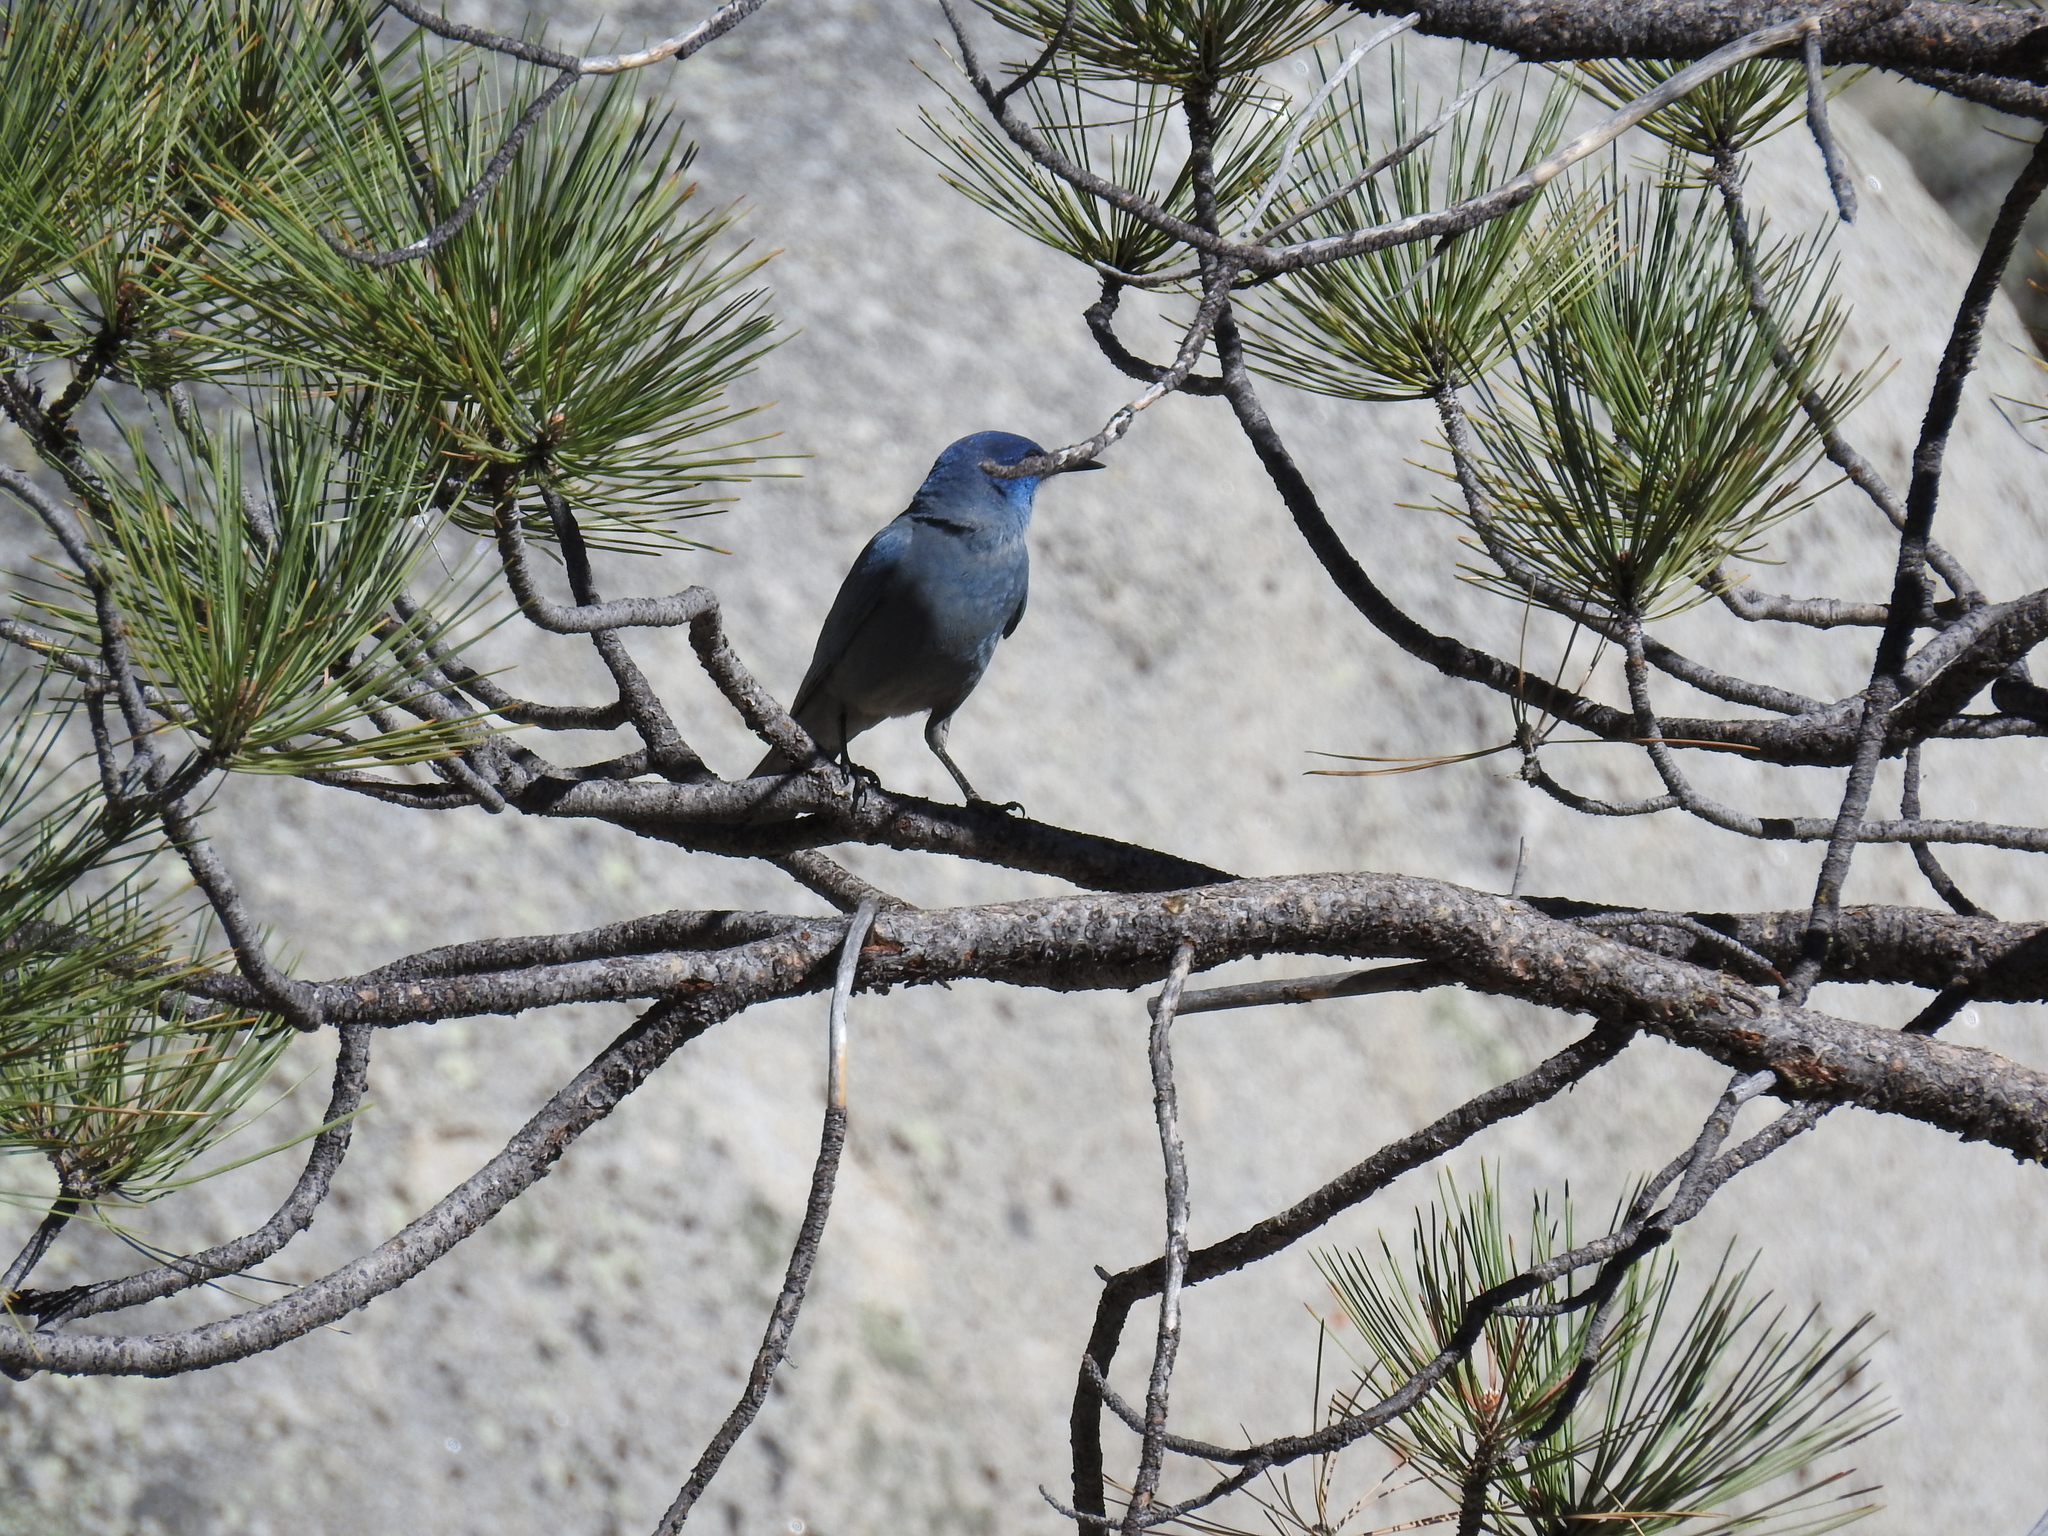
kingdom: Animalia
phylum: Chordata
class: Aves
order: Passeriformes
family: Corvidae
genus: Gymnorhinus
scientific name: Gymnorhinus cyanocephalus
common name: Pinyon jay
